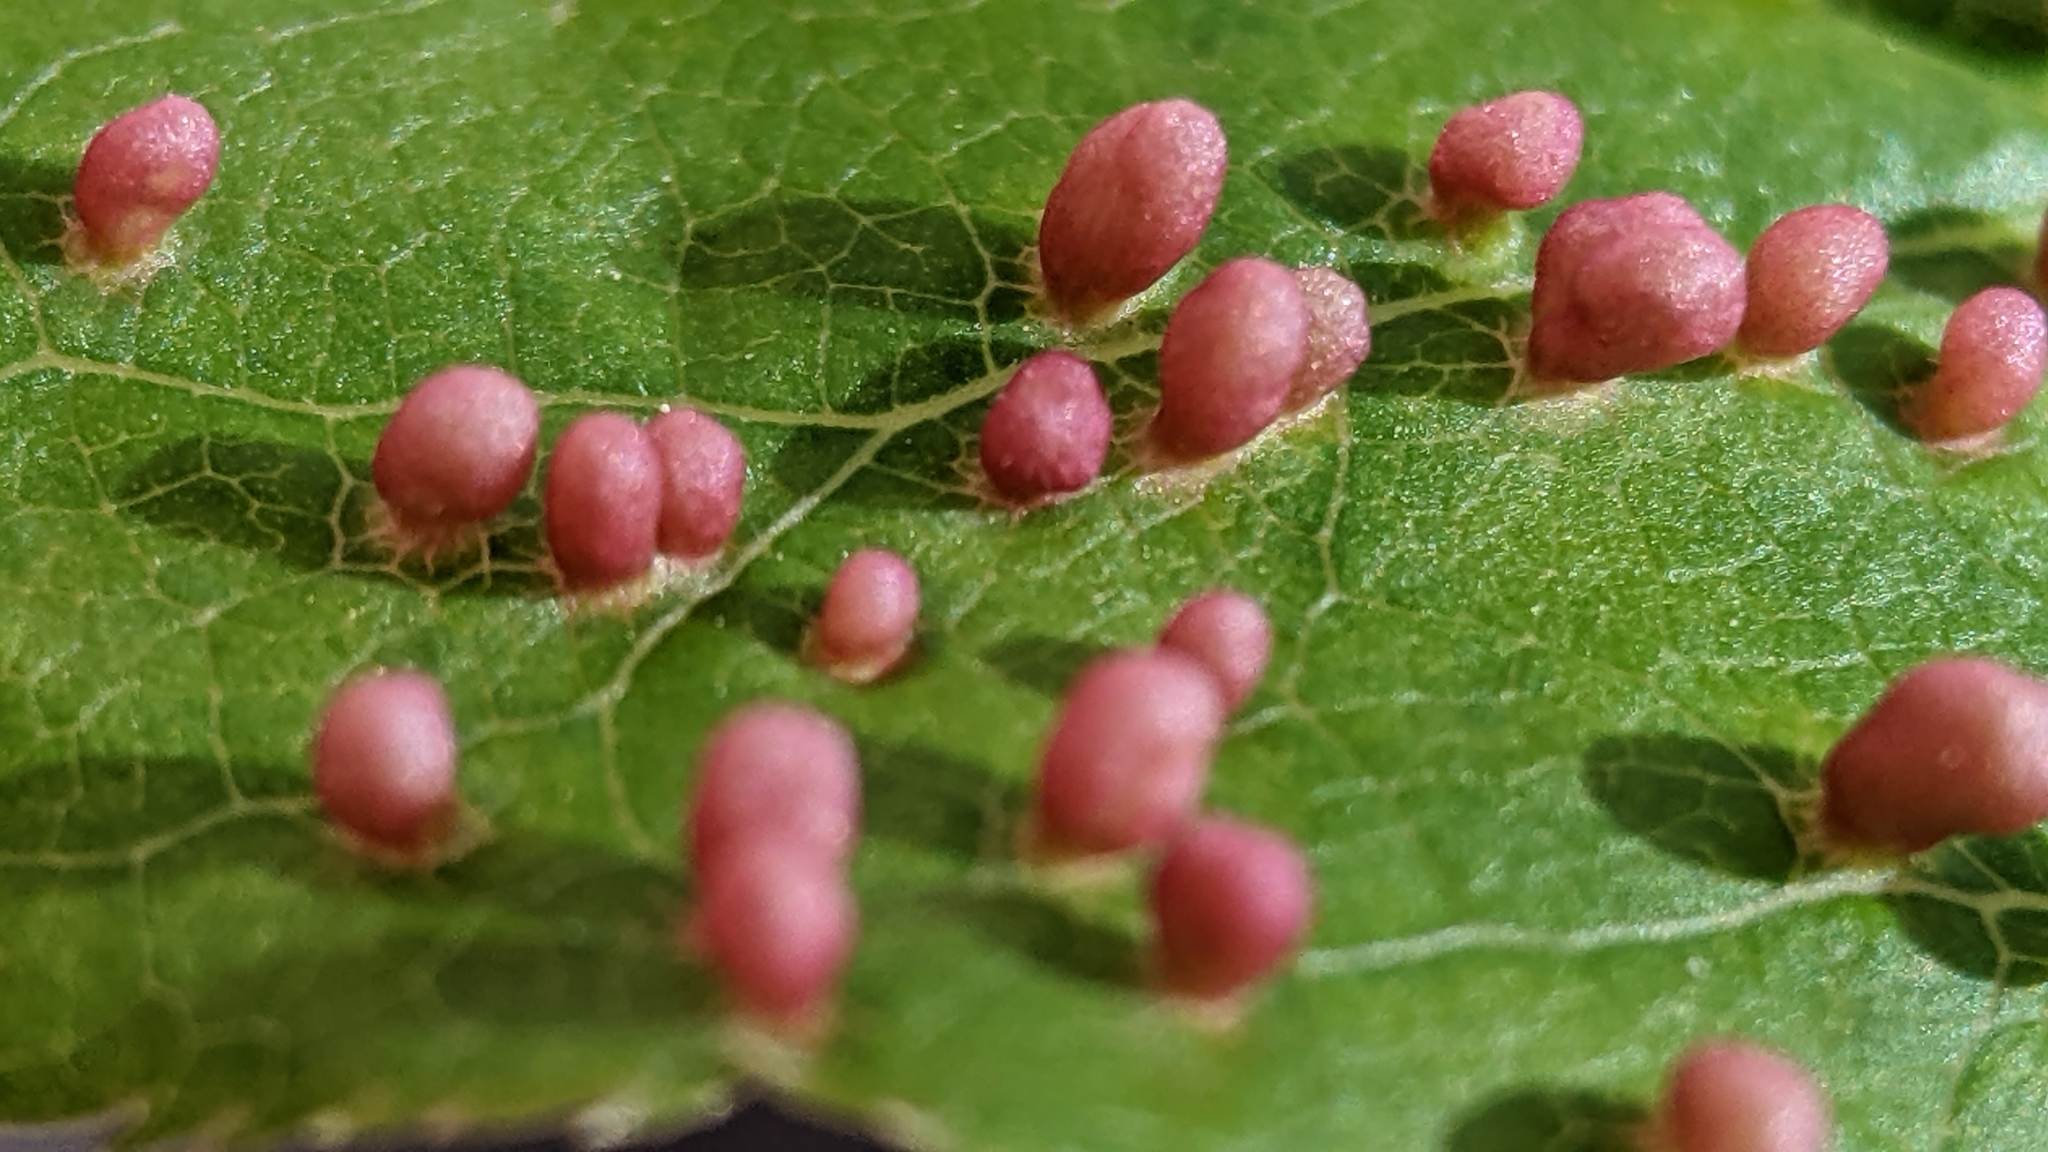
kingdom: Animalia
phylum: Arthropoda
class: Arachnida
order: Trombidiformes
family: Eriophyidae
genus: Eriophyes
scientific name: Eriophyes emarginatae
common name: Plum leaf gall mite
